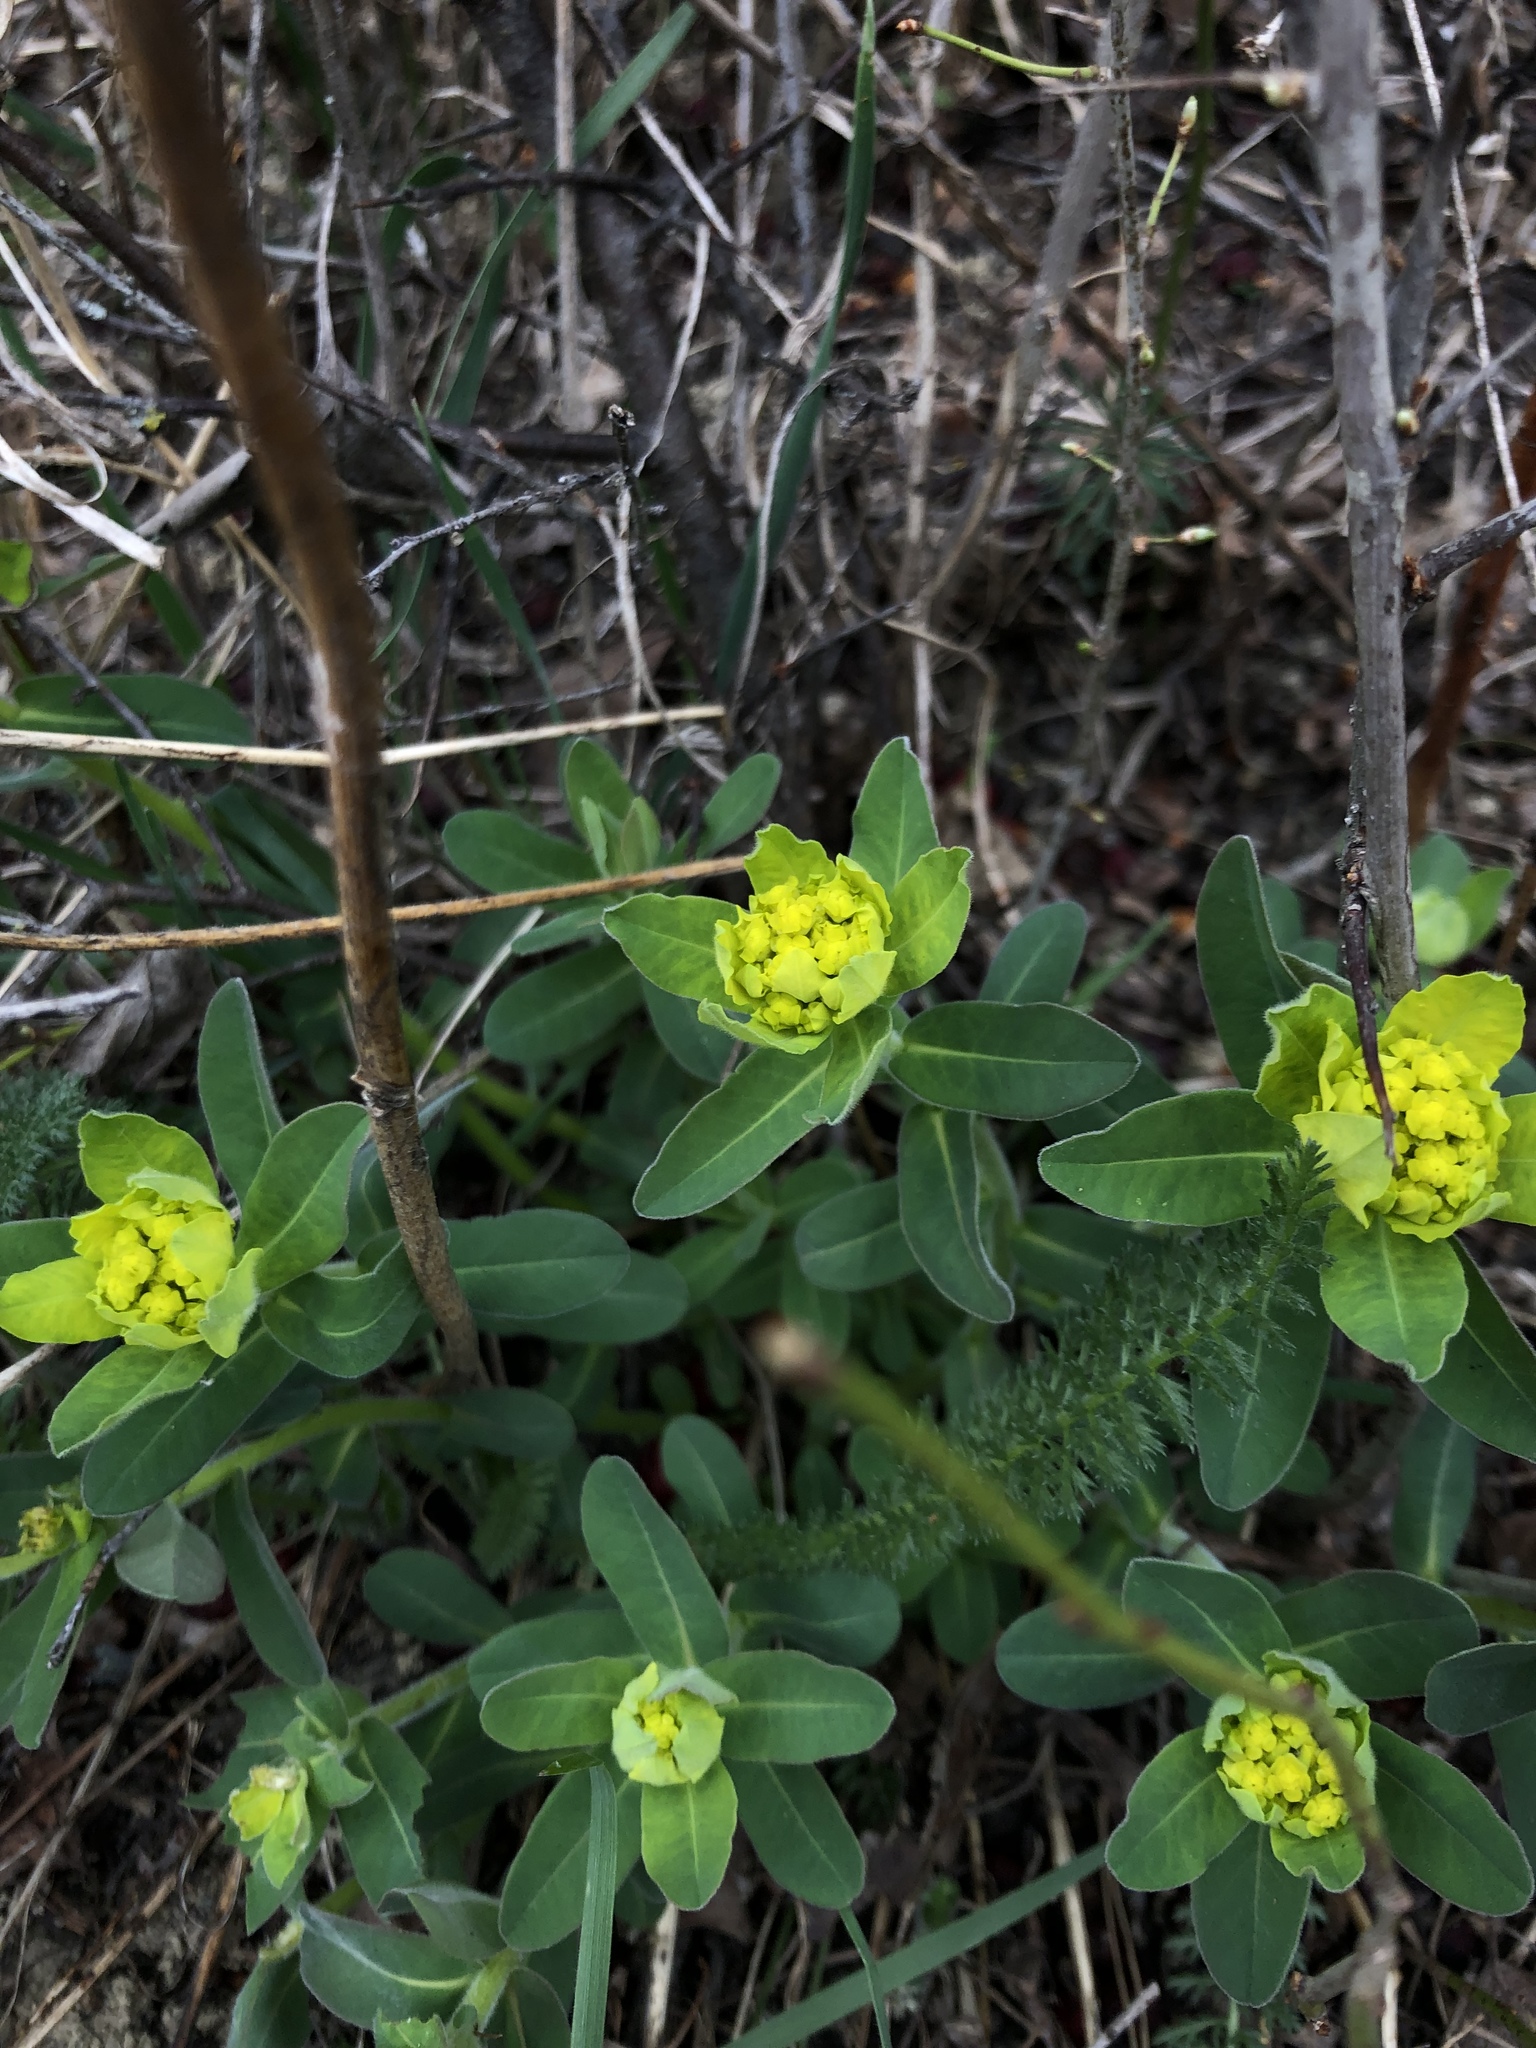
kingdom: Plantae
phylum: Tracheophyta
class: Magnoliopsida
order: Malpighiales
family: Euphorbiaceae
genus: Euphorbia
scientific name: Euphorbia epithymoides
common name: Cushion spurge
